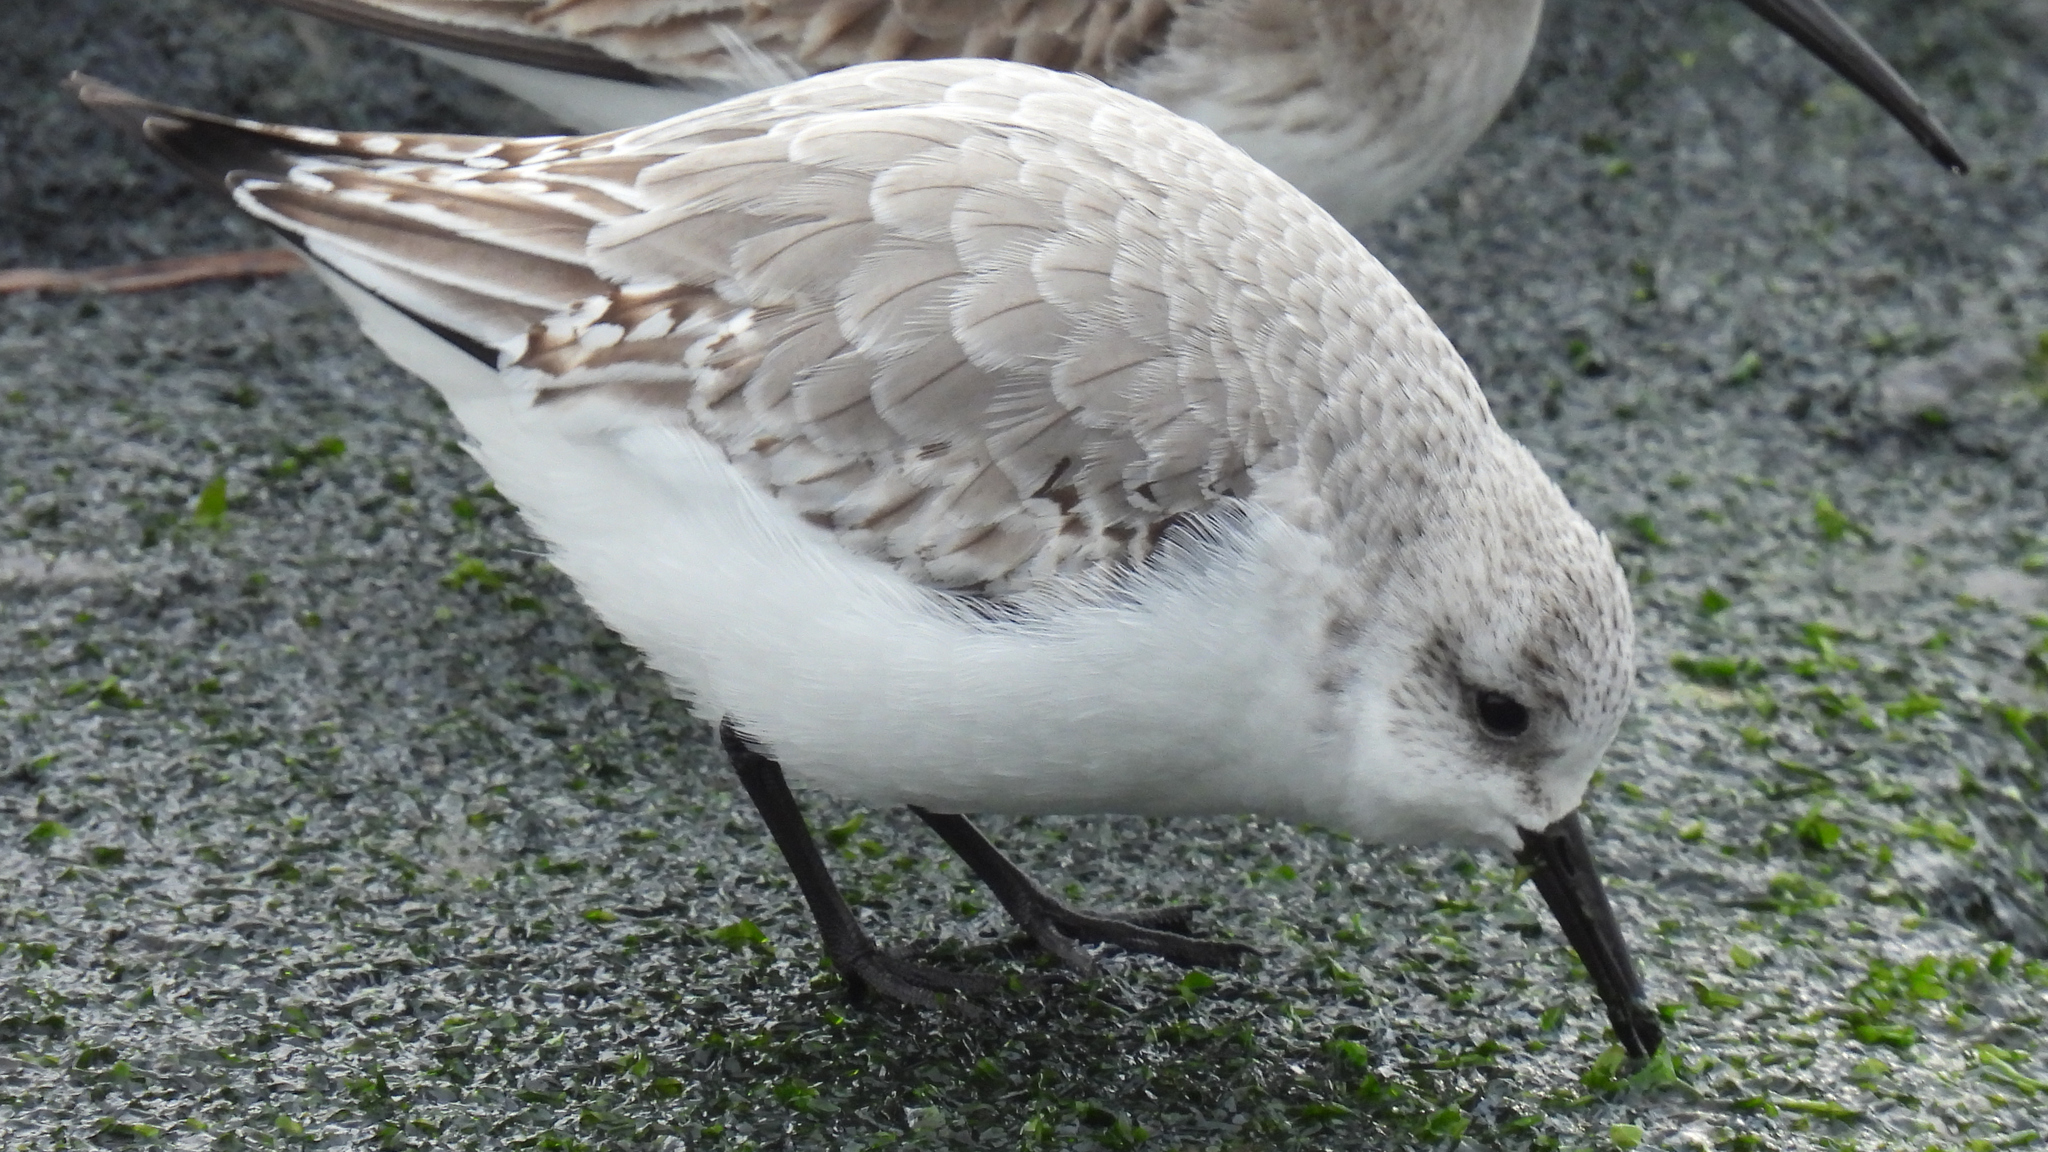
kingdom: Animalia
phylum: Chordata
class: Aves
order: Charadriiformes
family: Scolopacidae
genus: Calidris
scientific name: Calidris alba
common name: Sanderling
